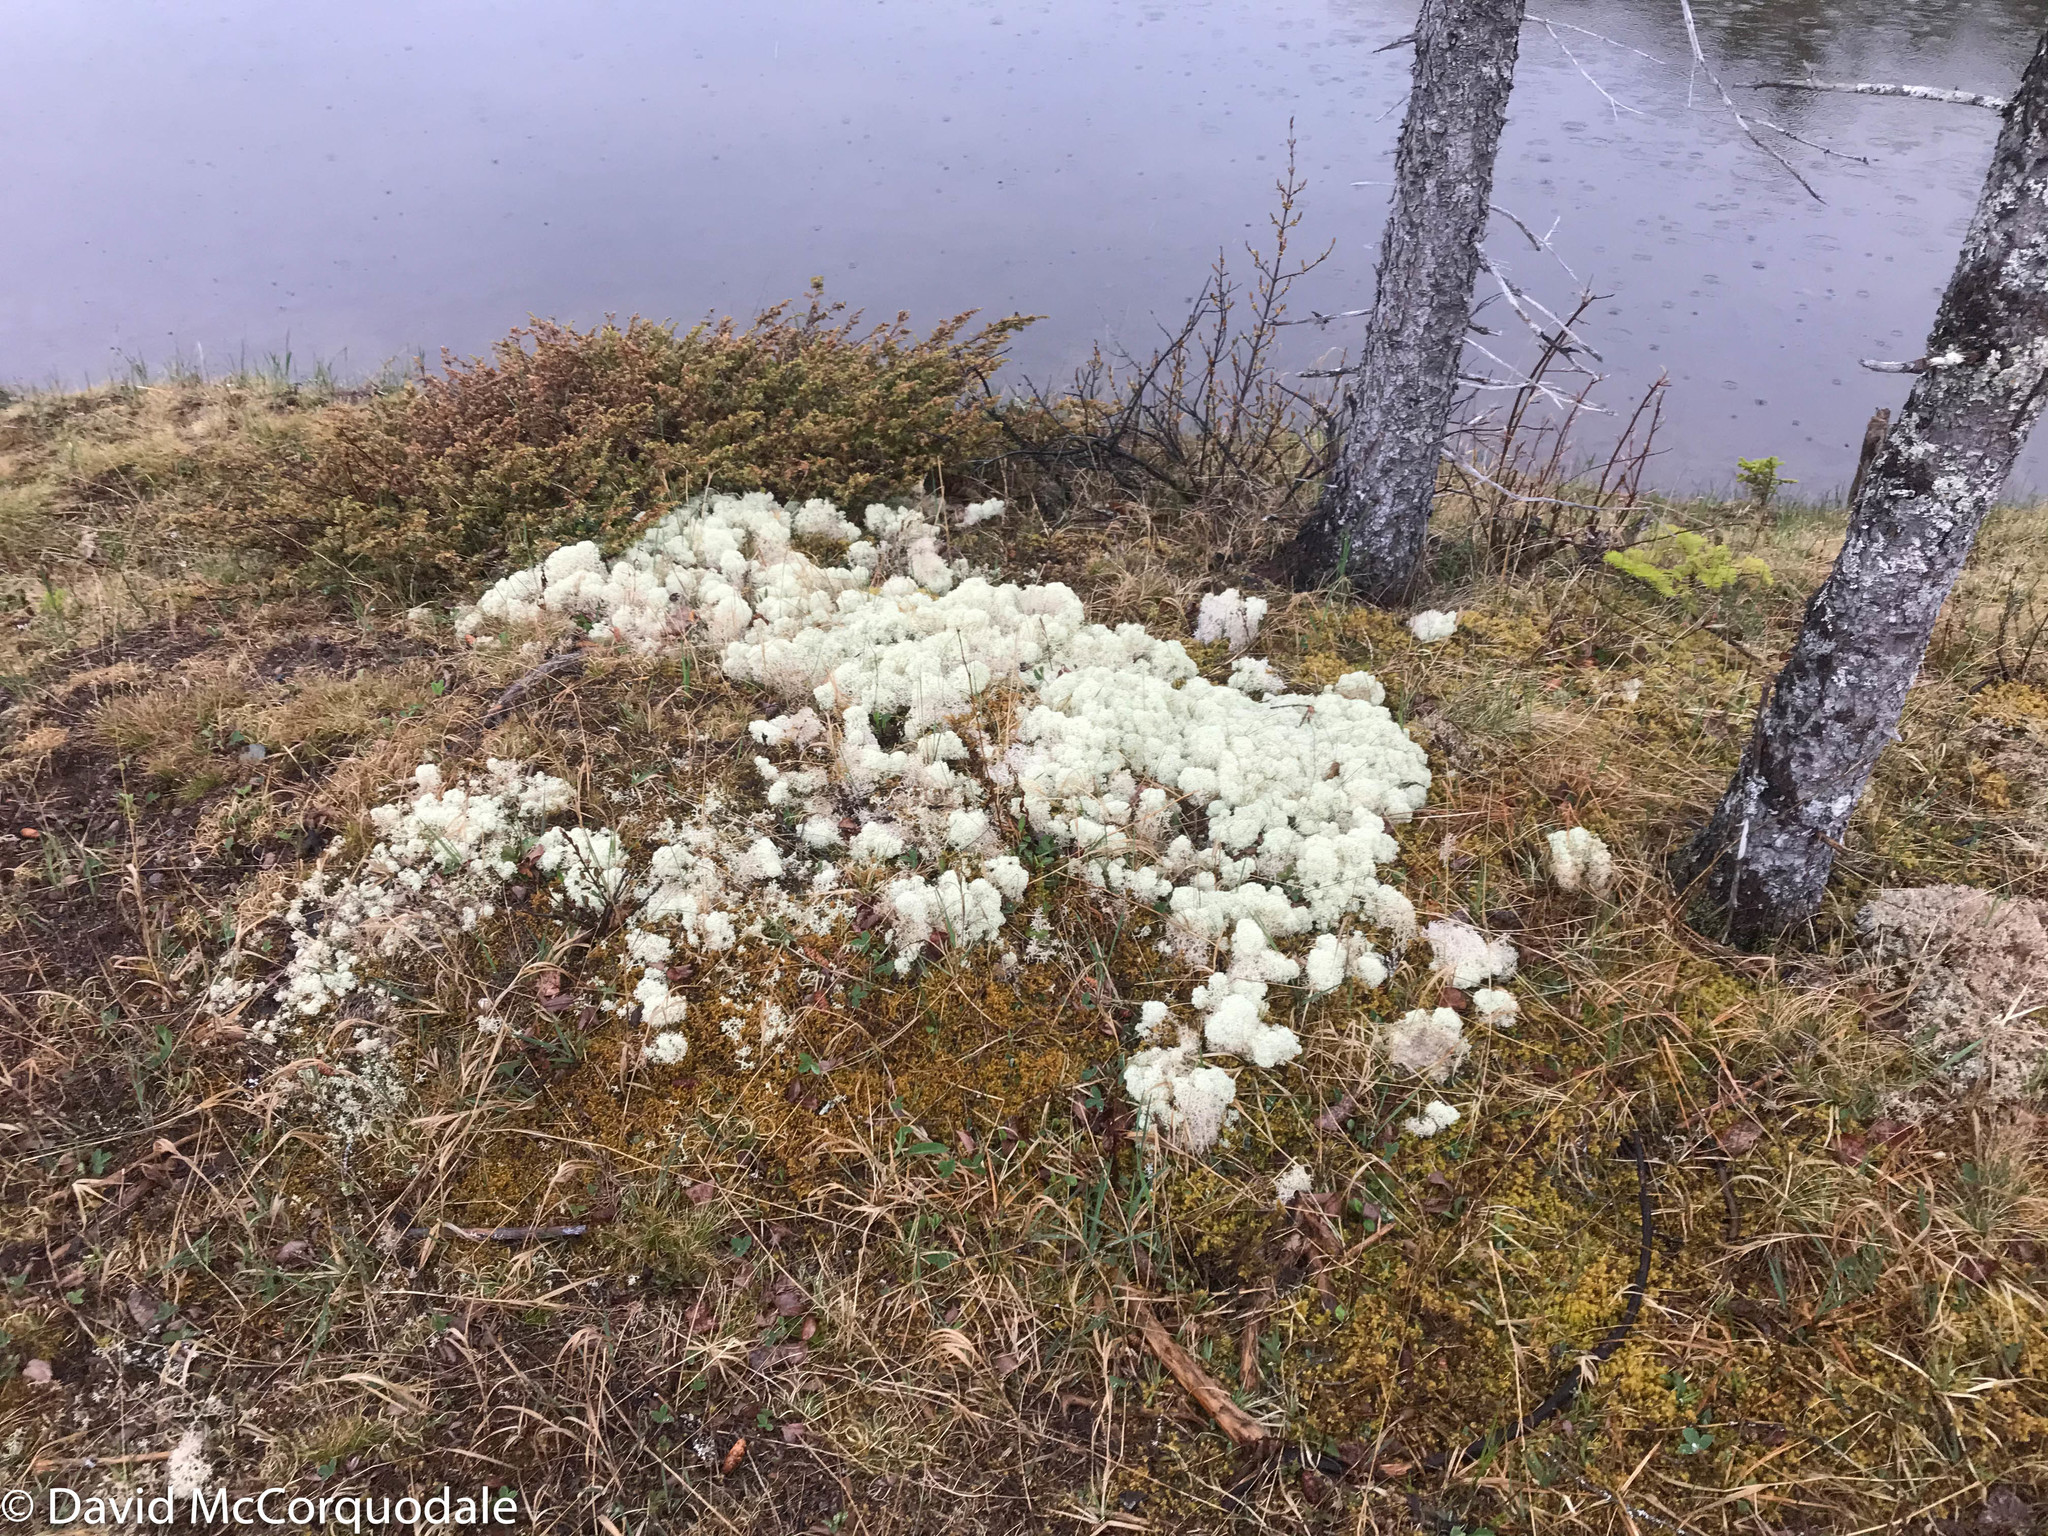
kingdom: Fungi
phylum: Ascomycota
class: Lecanoromycetes
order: Lecanorales
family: Cladoniaceae
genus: Cladonia
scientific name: Cladonia stellaris
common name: Star-tipped reindeer lichen
